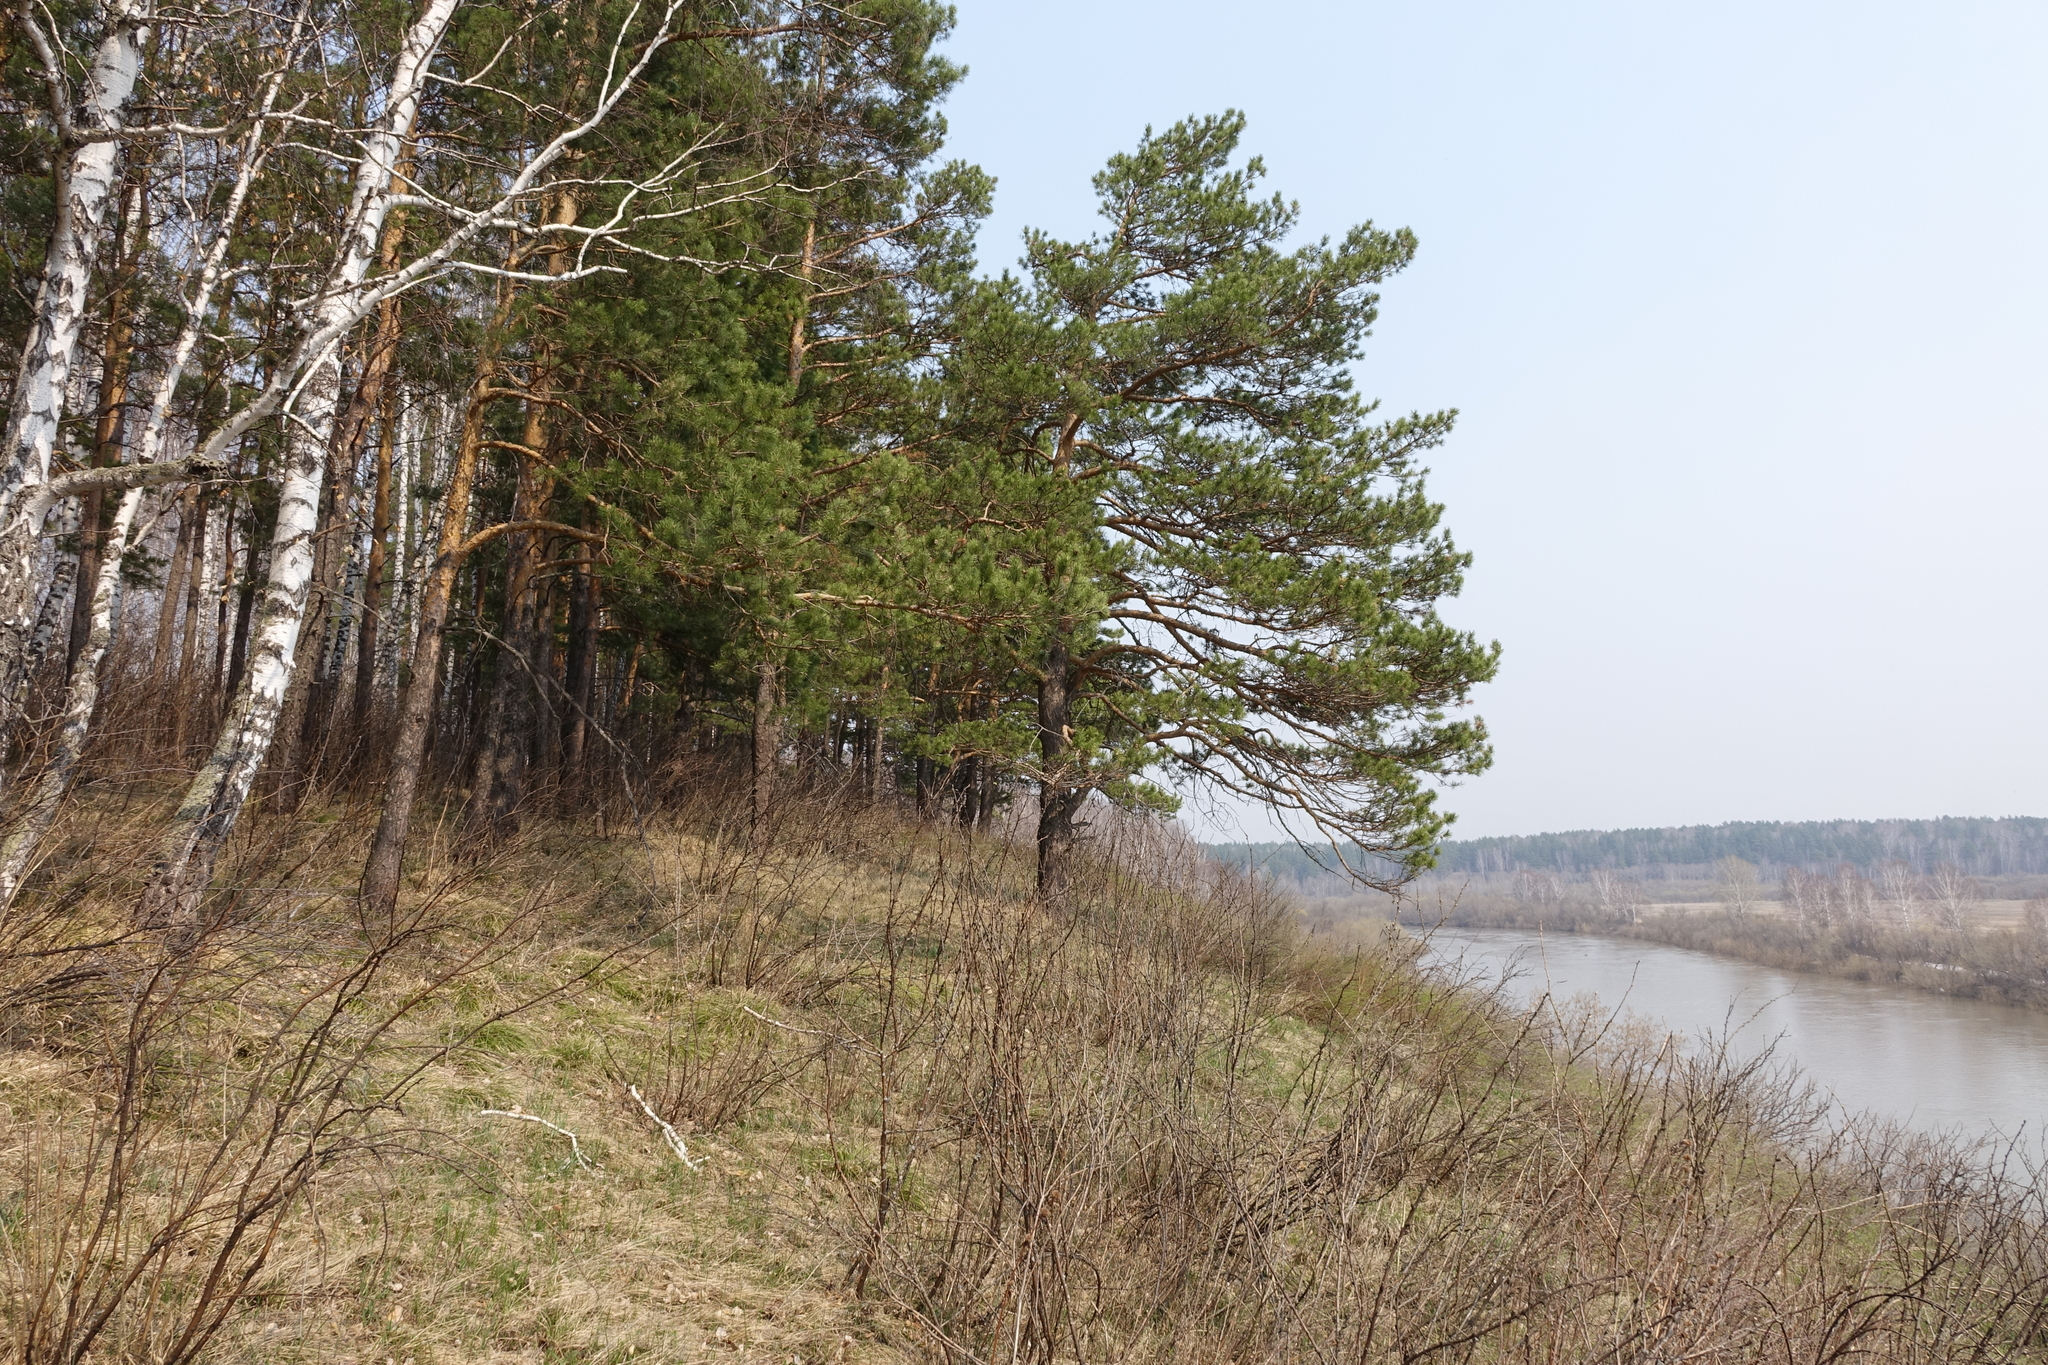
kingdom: Plantae
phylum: Tracheophyta
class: Pinopsida
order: Pinales
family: Pinaceae
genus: Pinus
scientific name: Pinus sylvestris
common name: Scots pine
